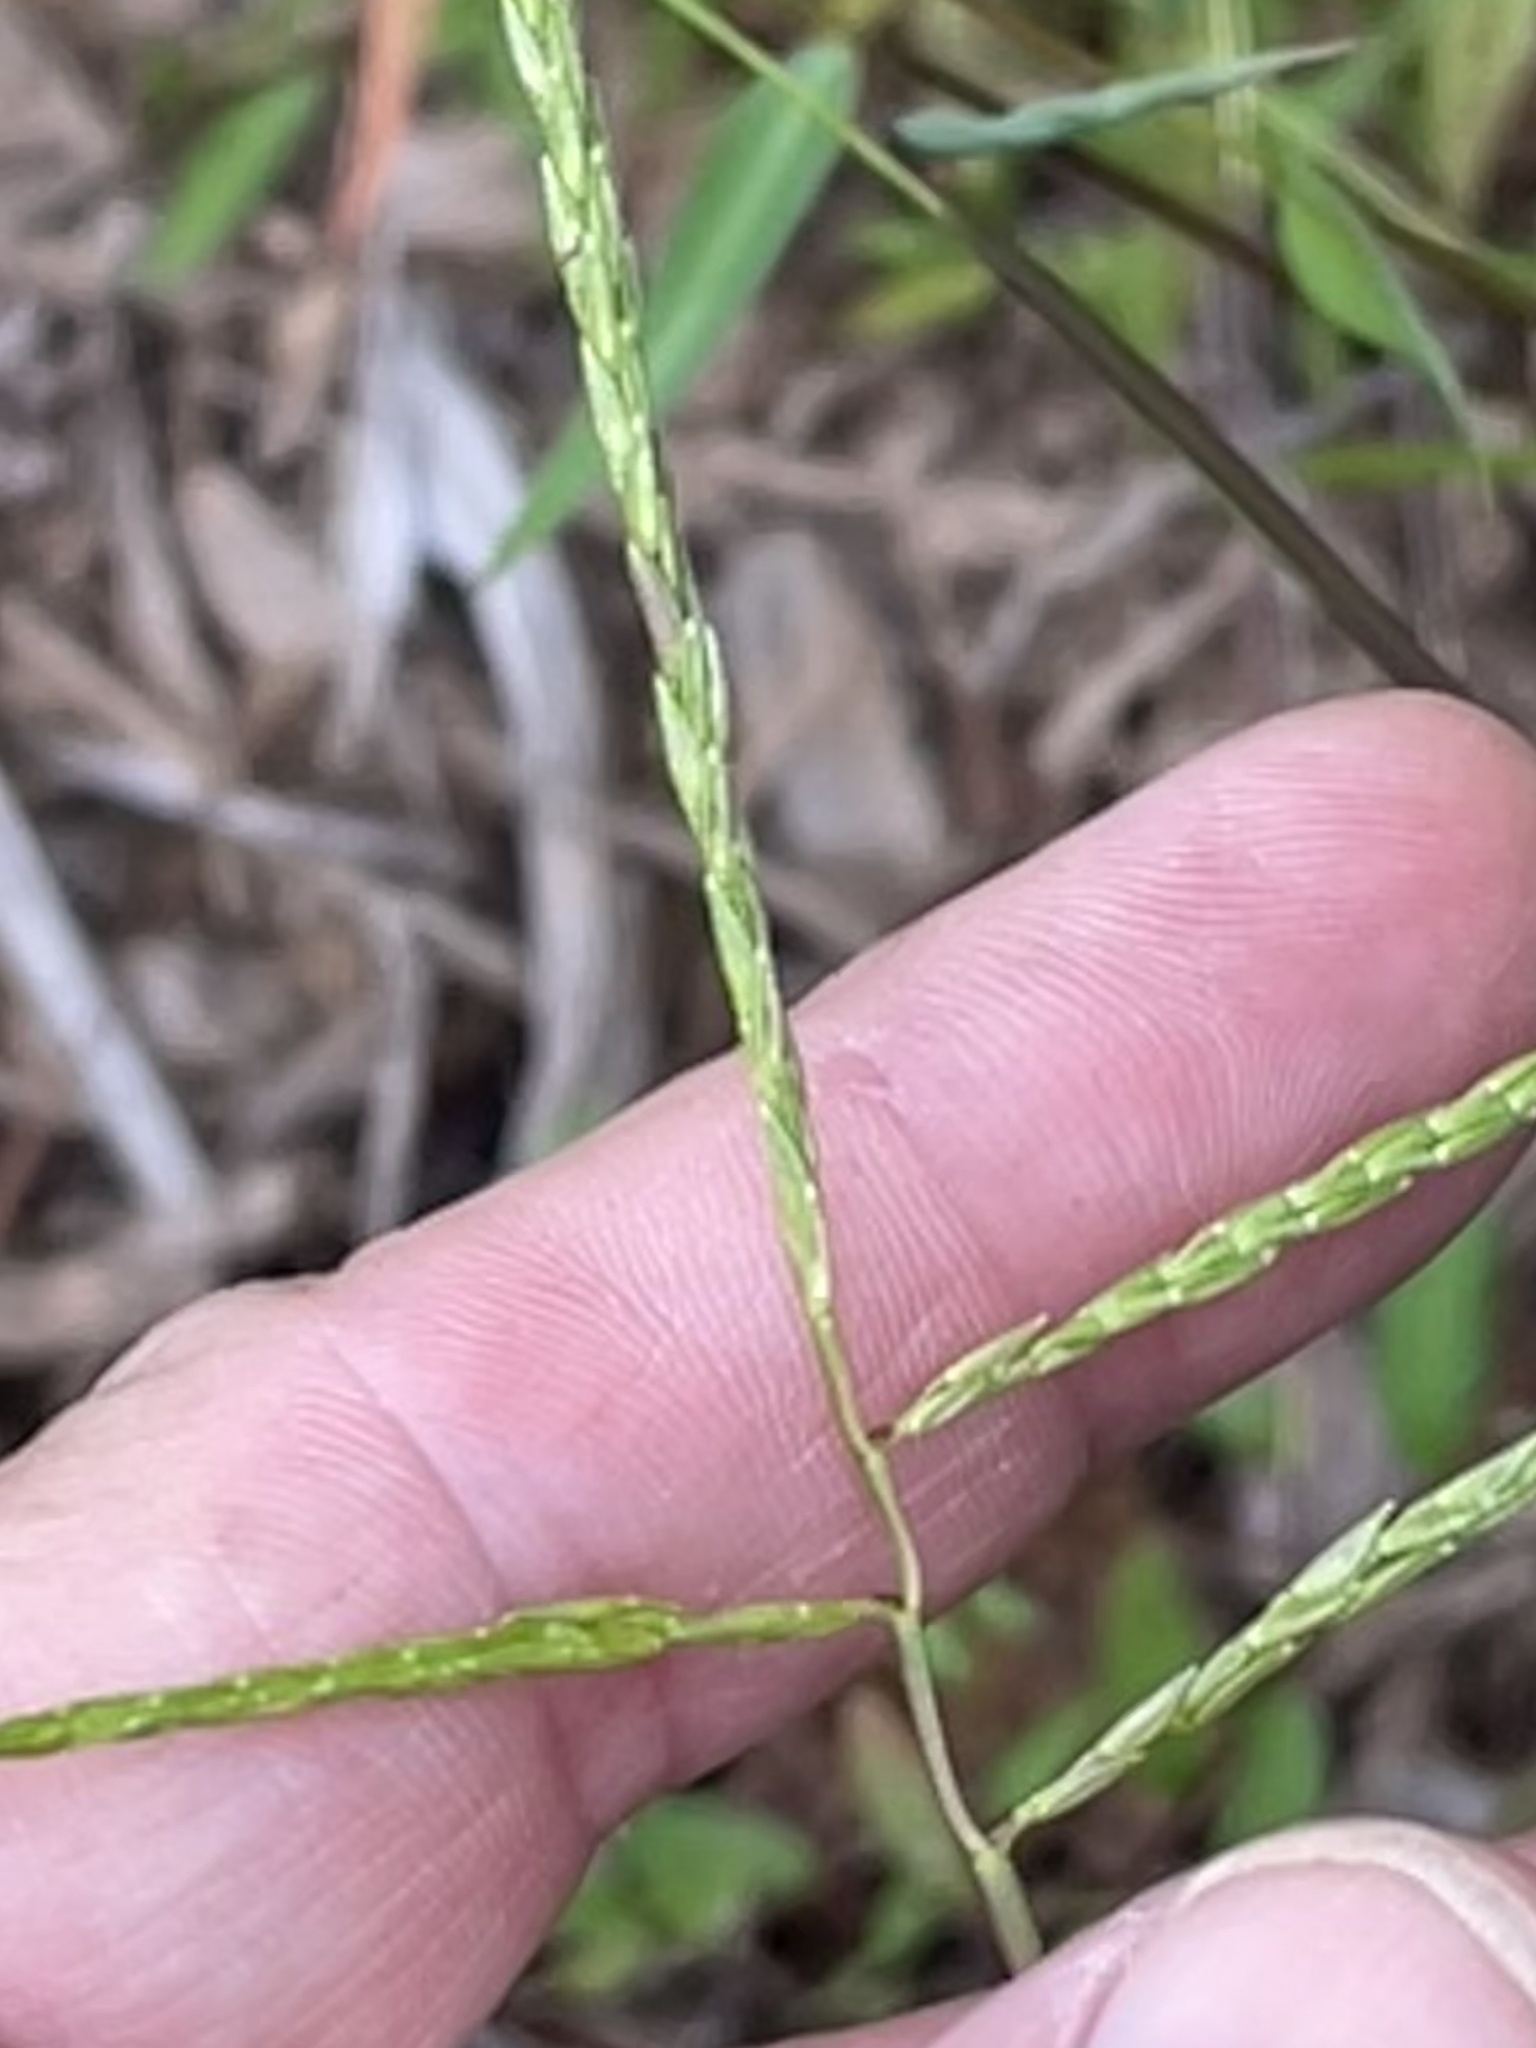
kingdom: Plantae
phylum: Tracheophyta
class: Liliopsida
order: Poales
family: Poaceae
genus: Microstegium
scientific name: Microstegium vimineum
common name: Japanese stiltgrass
